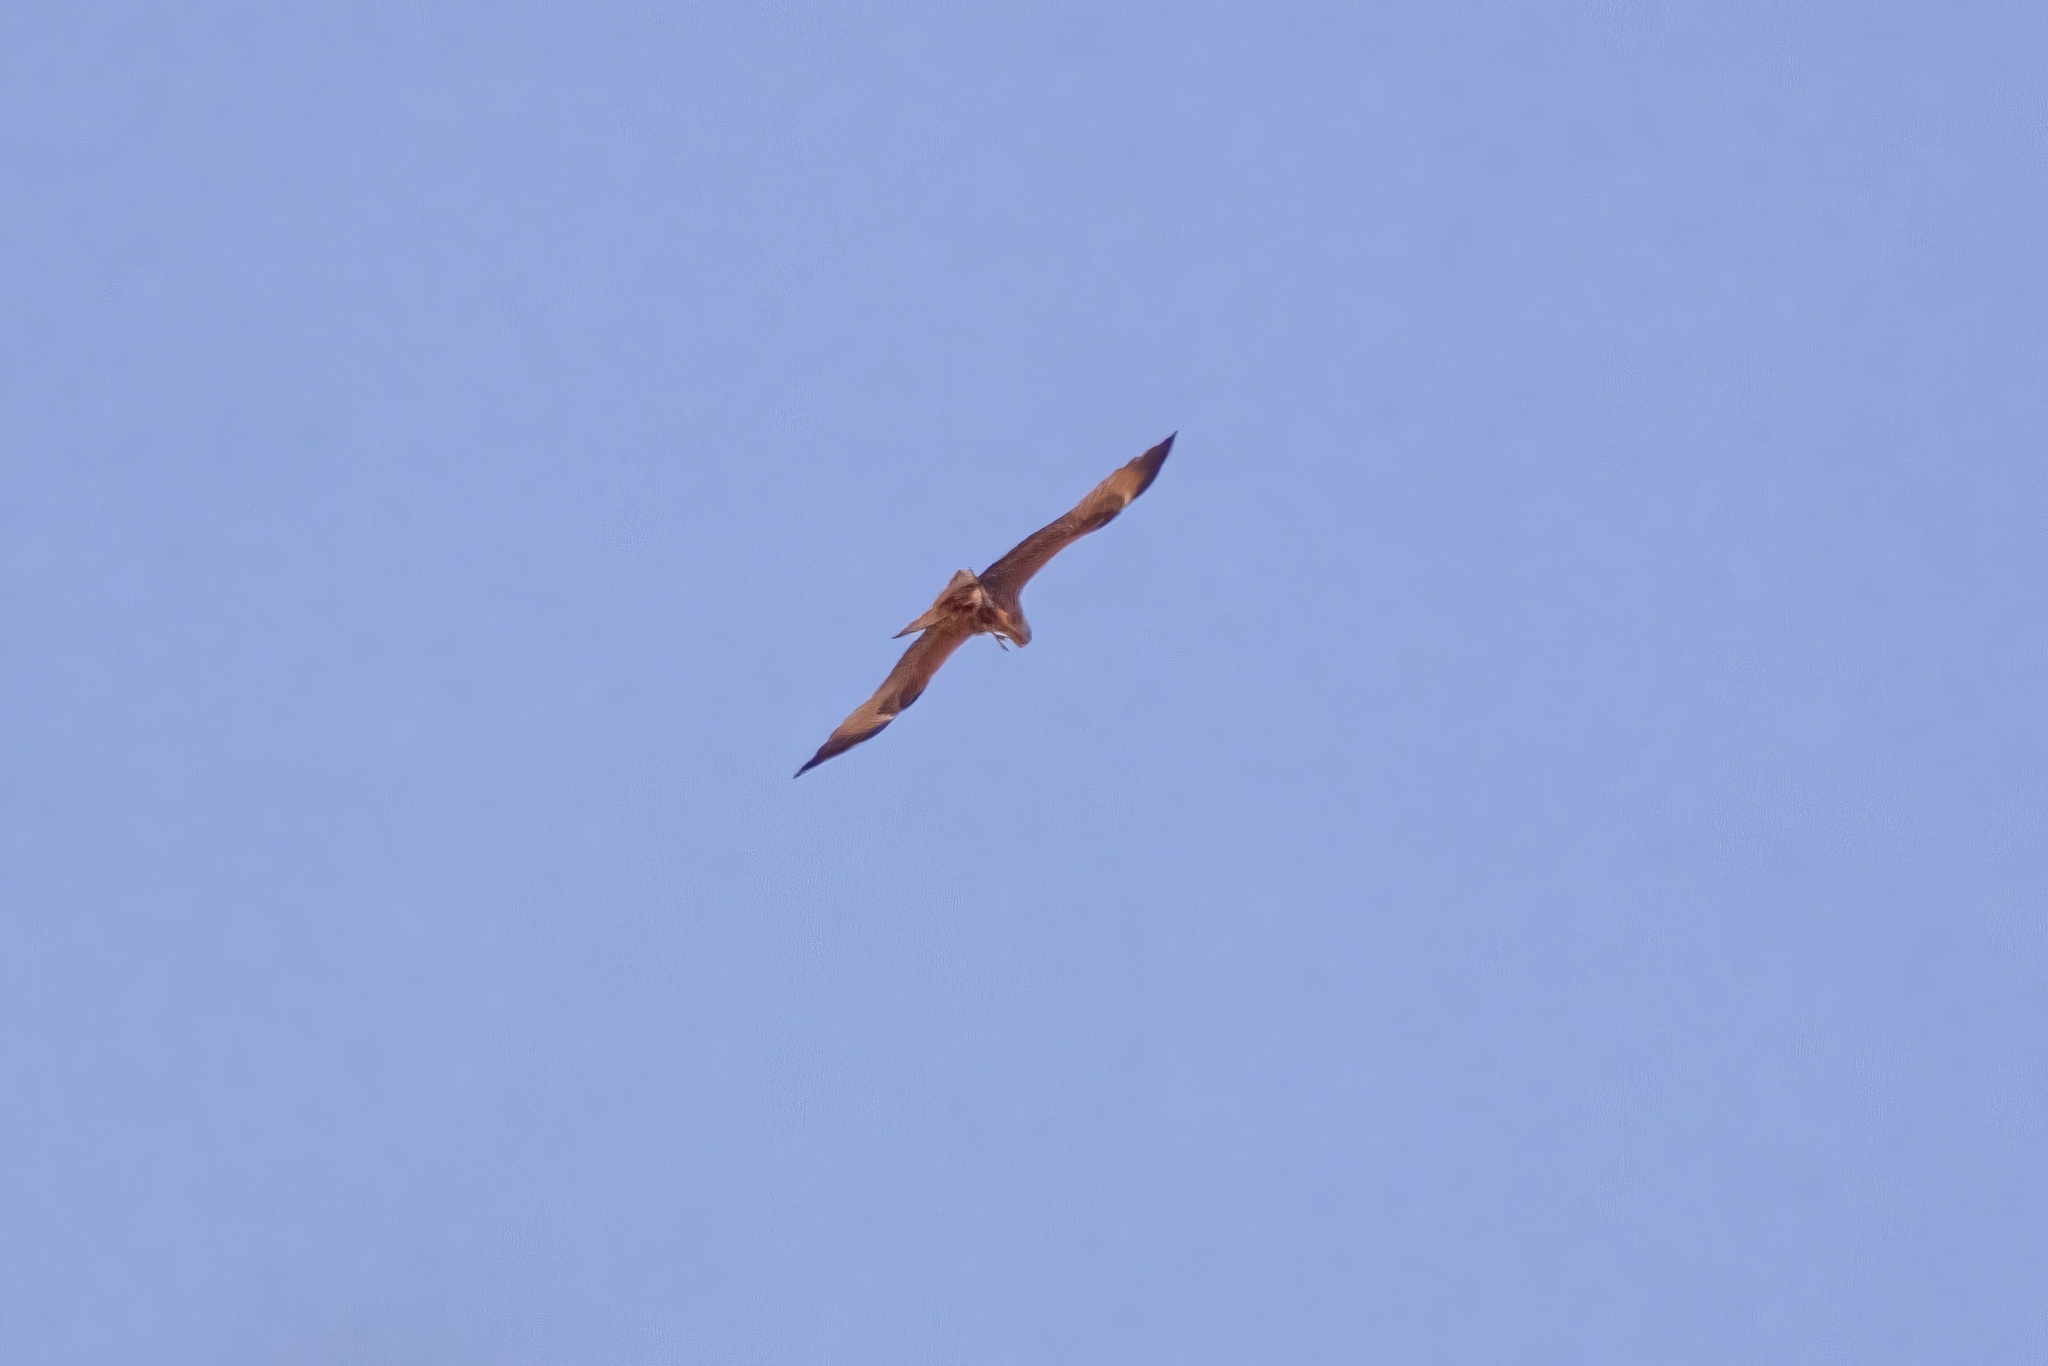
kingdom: Animalia
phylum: Chordata
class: Aves
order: Accipitriformes
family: Accipitridae
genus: Milvus
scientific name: Milvus migrans
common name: Black kite
